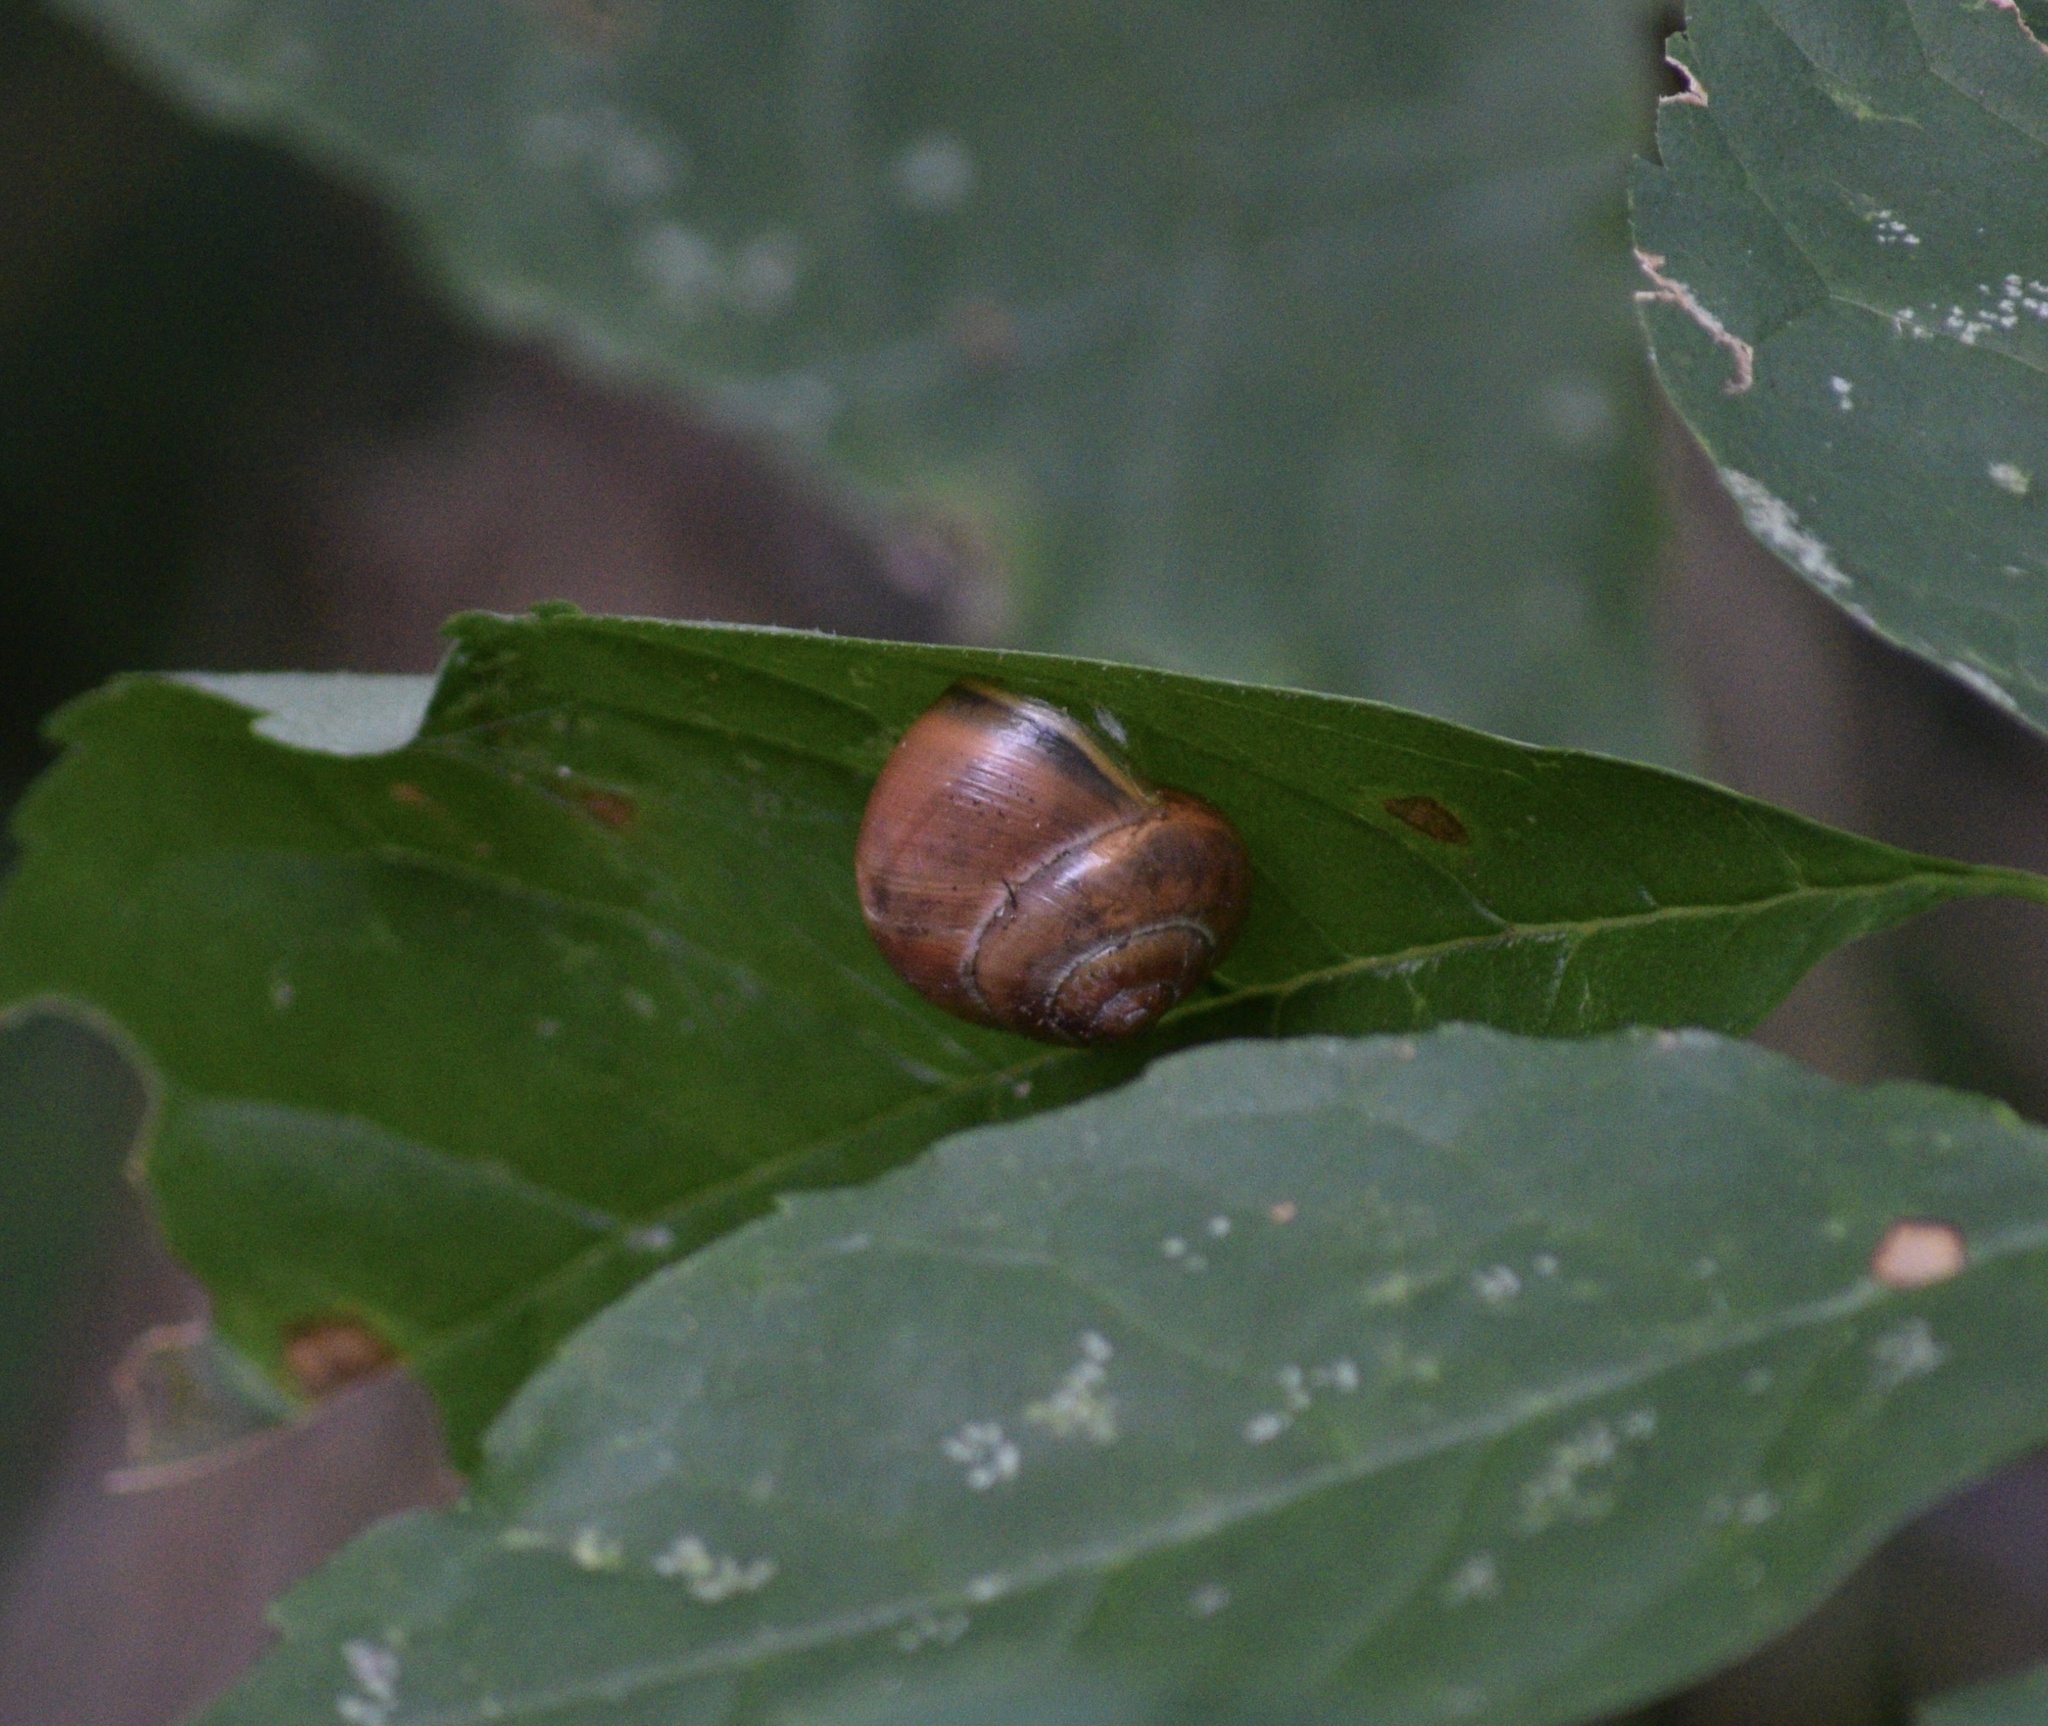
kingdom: Animalia
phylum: Mollusca
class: Gastropoda
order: Stylommatophora
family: Helicidae
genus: Cepaea
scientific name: Cepaea nemoralis
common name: Grovesnail
